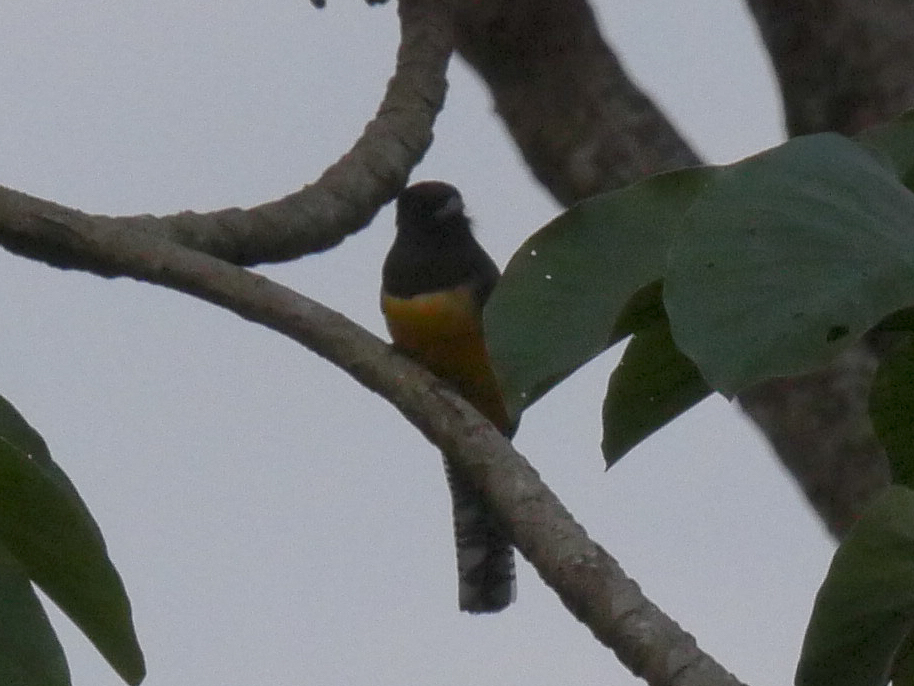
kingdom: Animalia
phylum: Chordata
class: Aves
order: Trogoniformes
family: Trogonidae
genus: Trogon
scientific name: Trogon caligatus
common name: Gartered trogon
